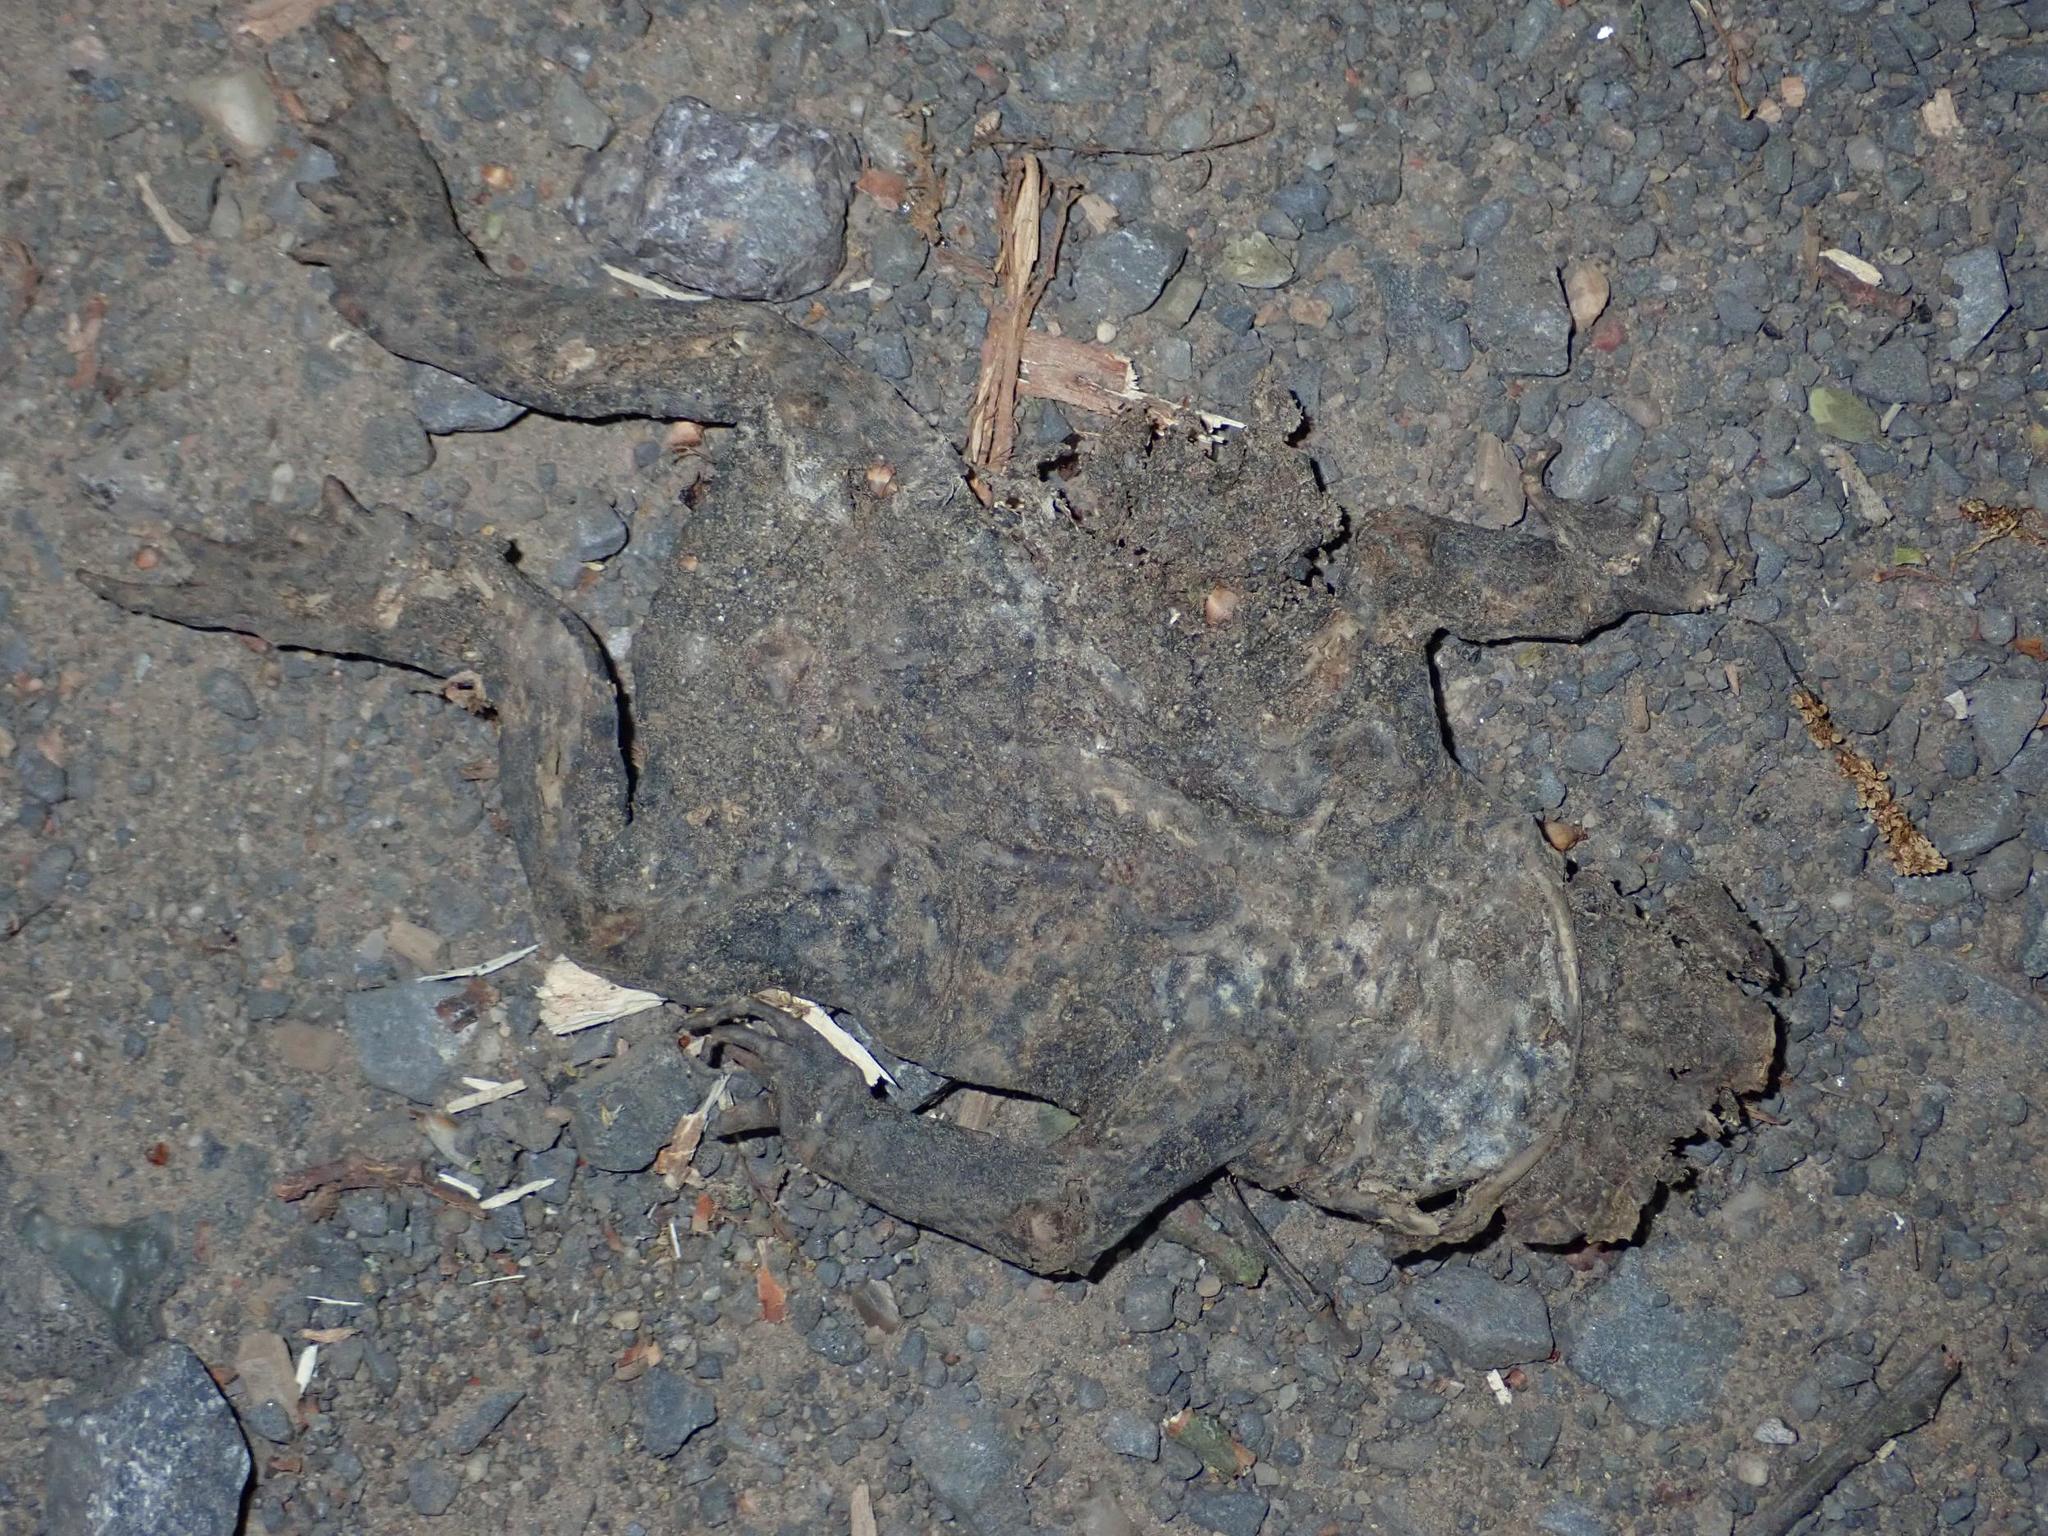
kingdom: Animalia
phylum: Chordata
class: Amphibia
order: Anura
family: Bufonidae
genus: Bufo
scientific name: Bufo bufo
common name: Common toad
